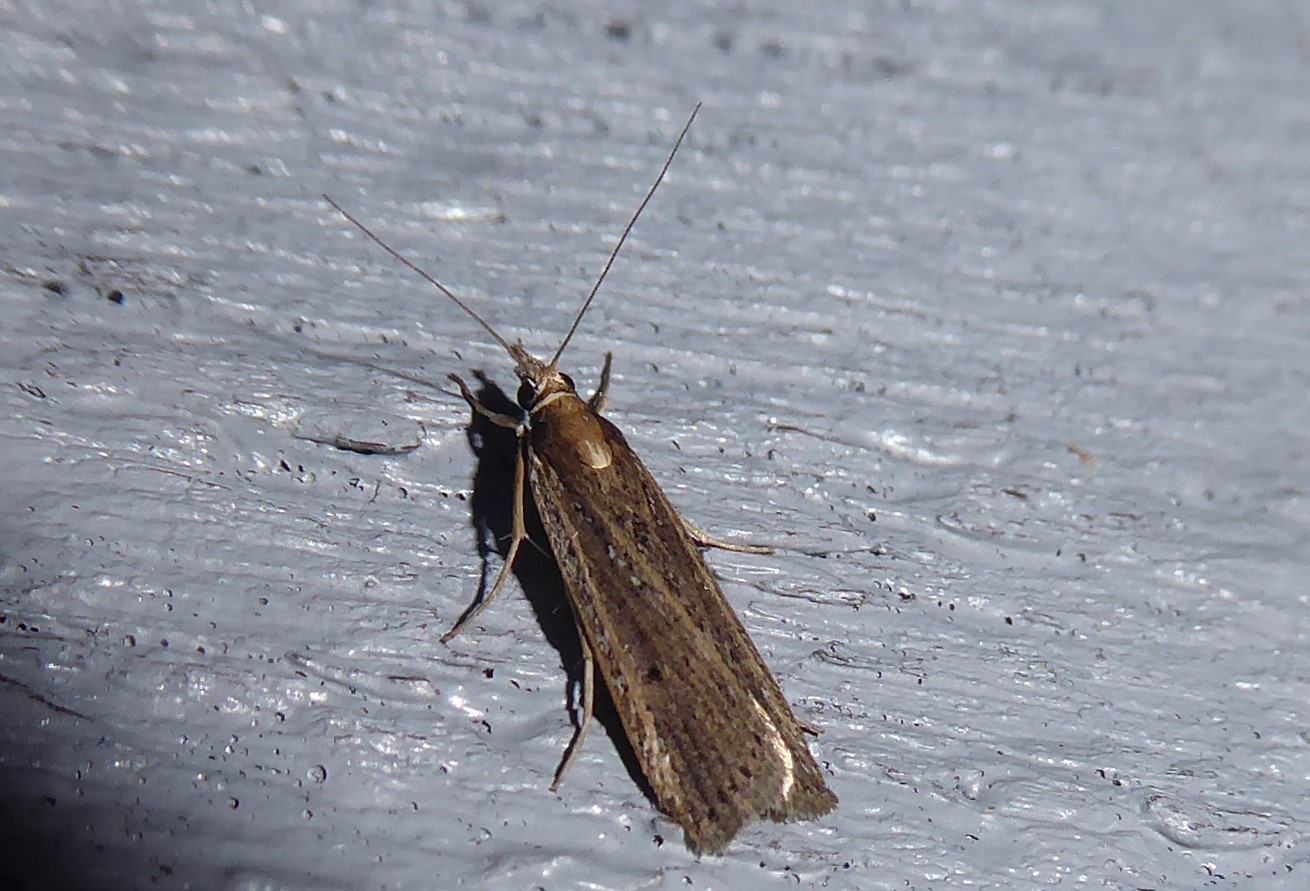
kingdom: Animalia
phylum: Arthropoda
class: Insecta
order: Lepidoptera
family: Crambidae
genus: Eudonia
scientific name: Eudonia sabulosella
